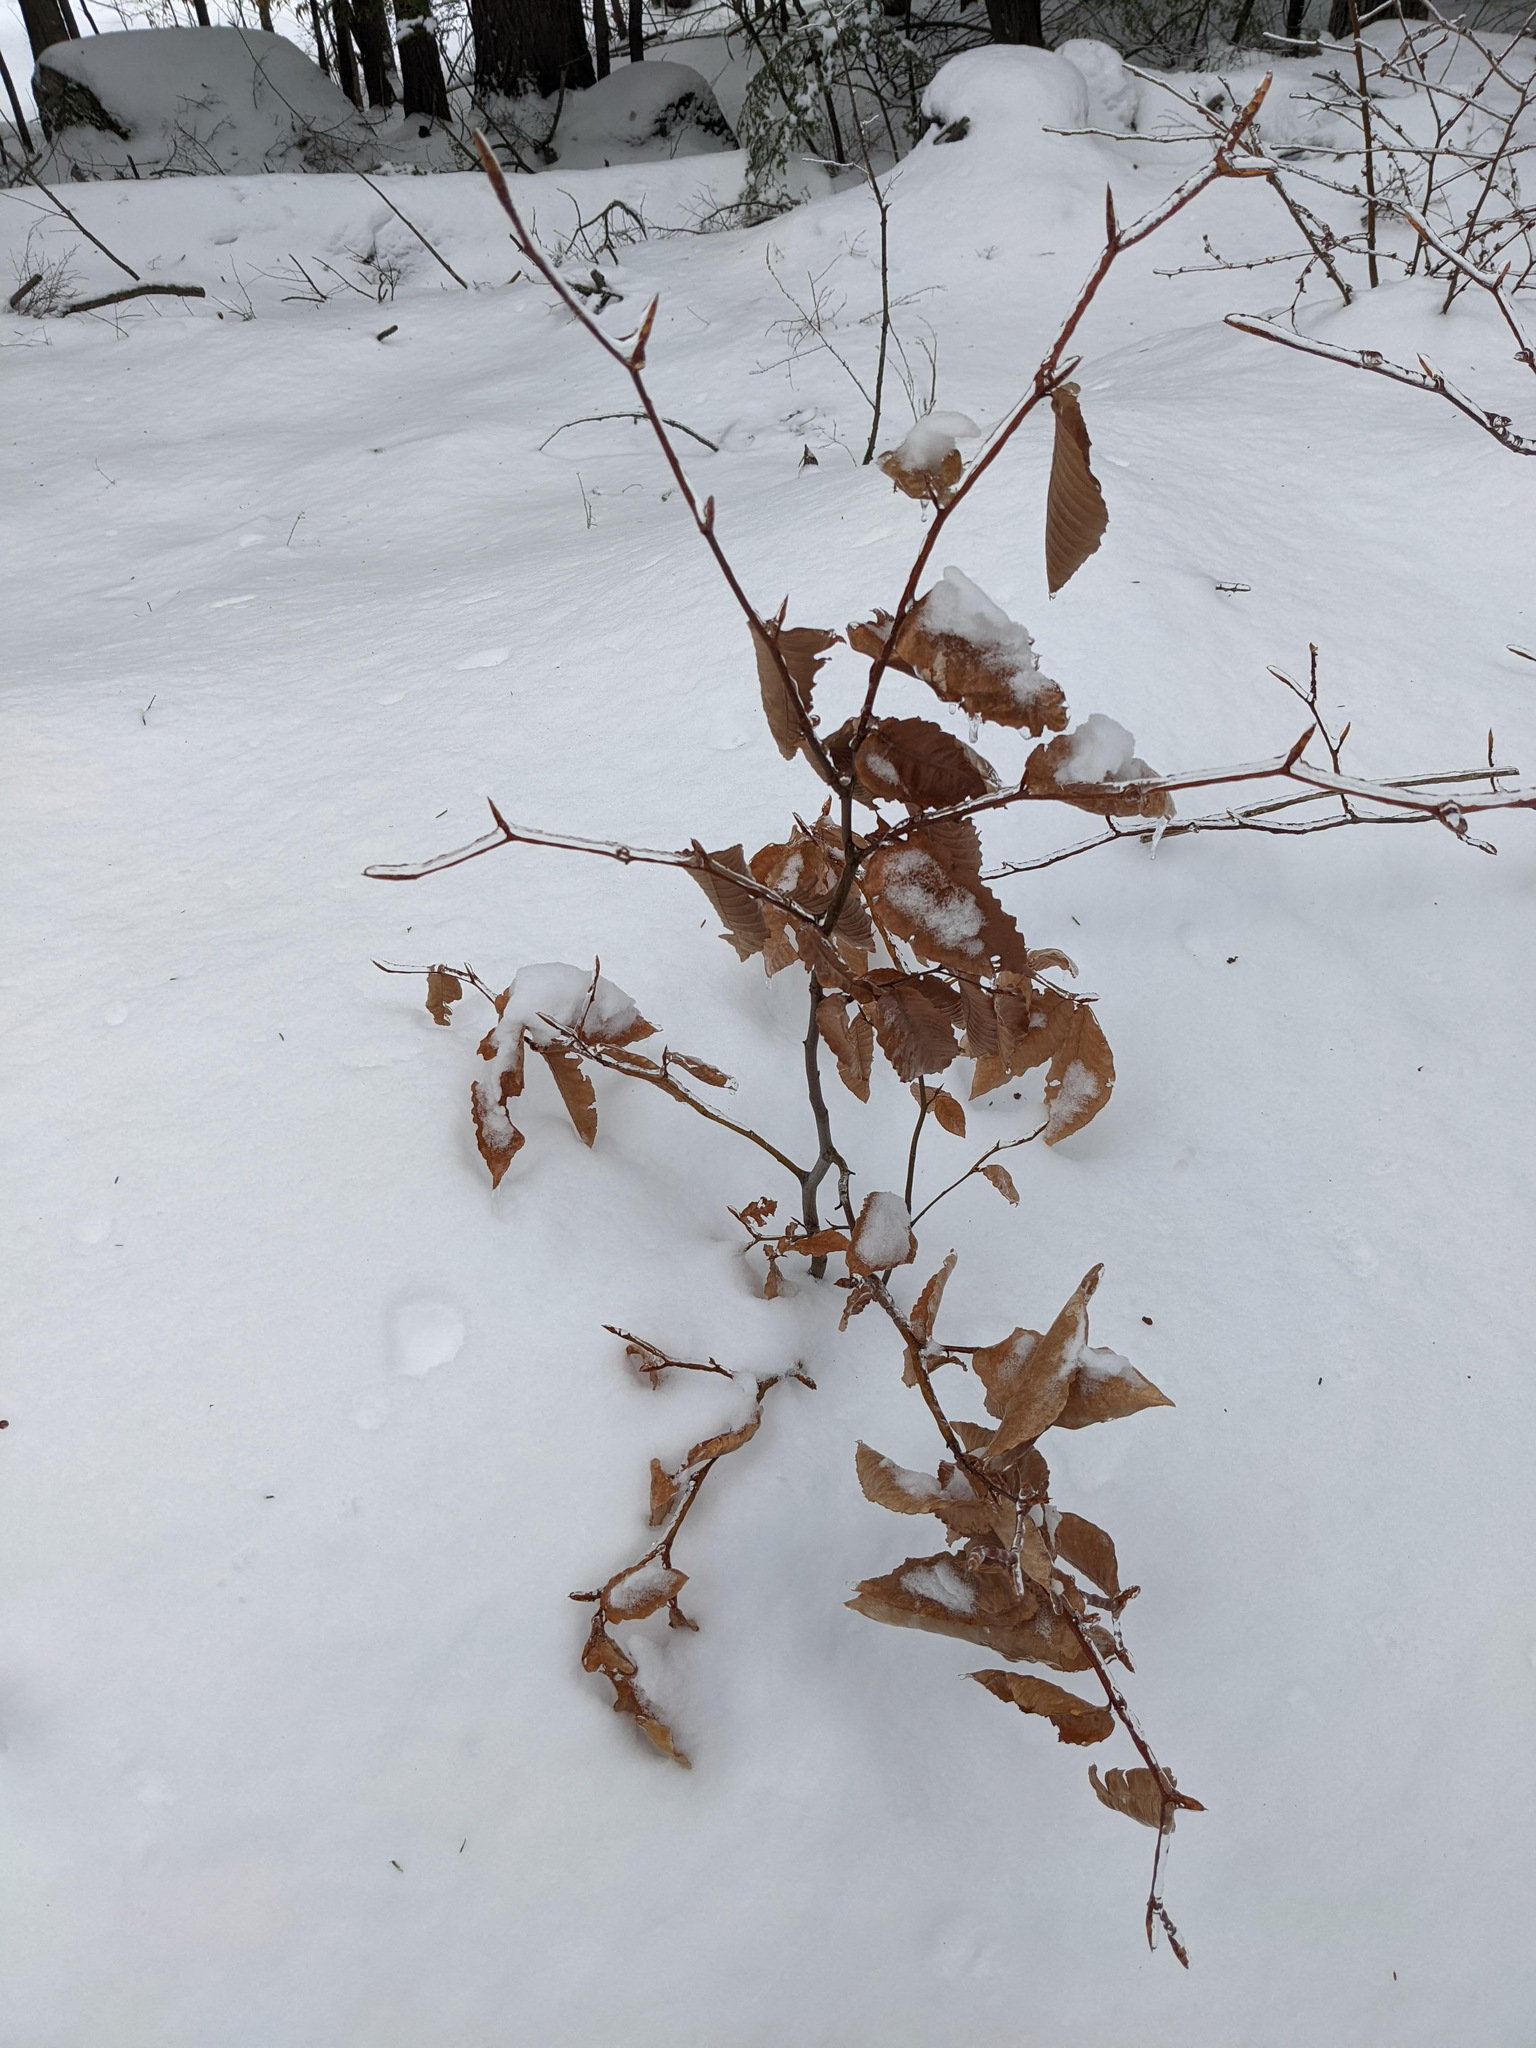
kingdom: Plantae
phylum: Tracheophyta
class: Magnoliopsida
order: Fagales
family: Fagaceae
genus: Fagus
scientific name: Fagus grandifolia
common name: American beech
